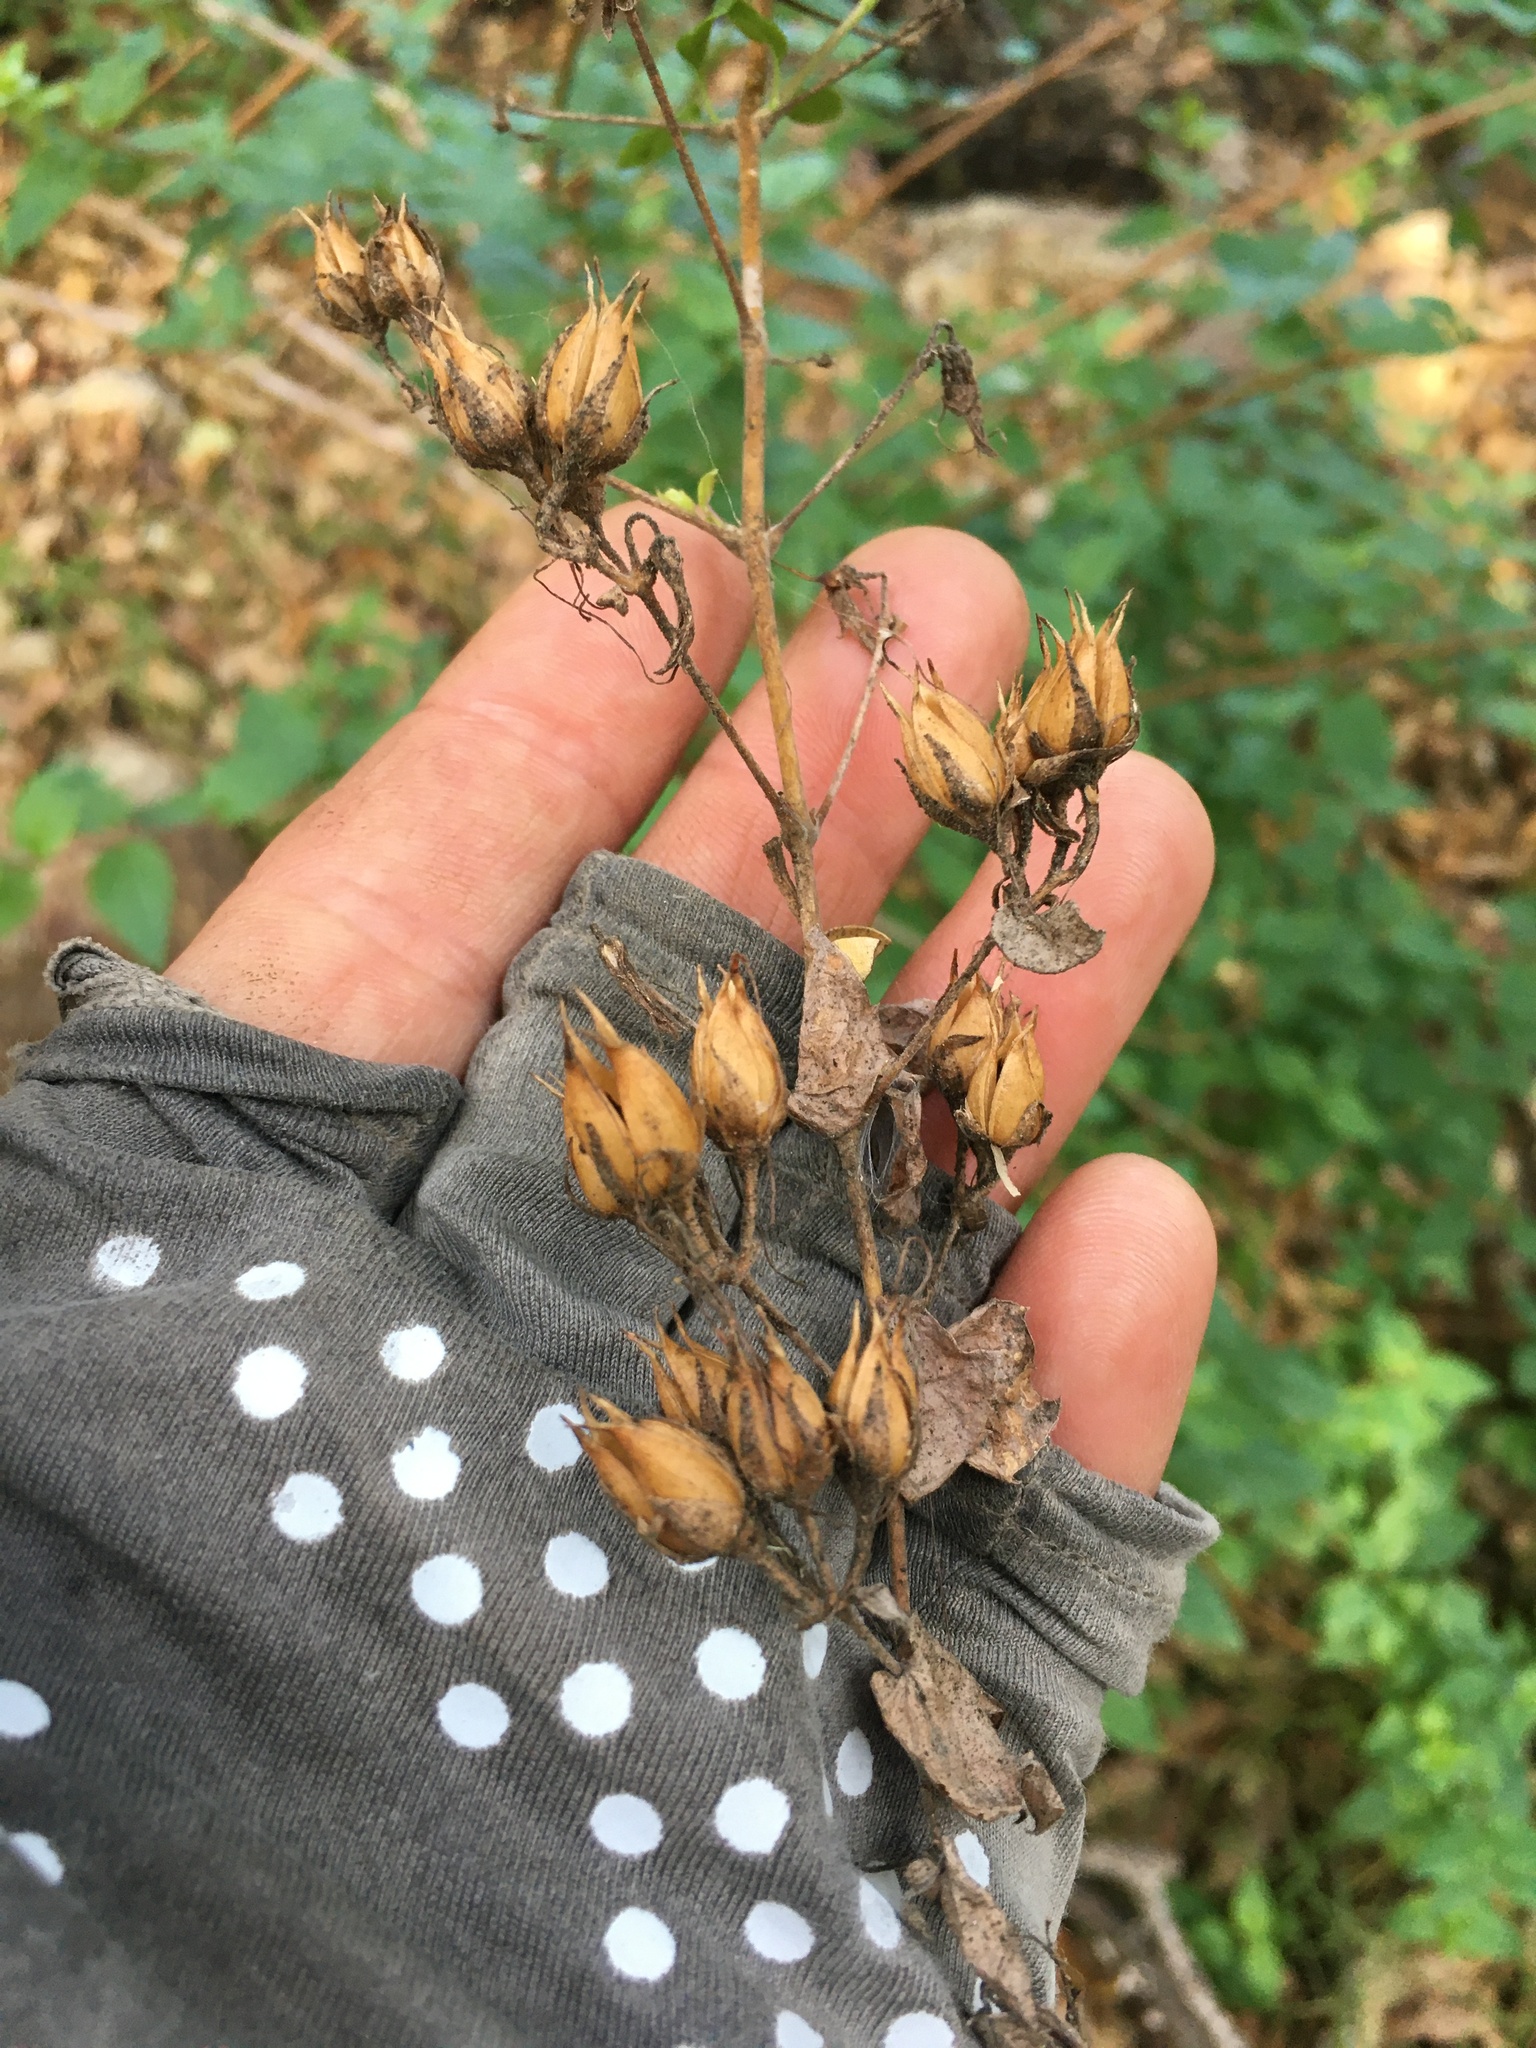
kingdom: Plantae
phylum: Tracheophyta
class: Magnoliopsida
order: Lamiales
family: Plantaginaceae
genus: Keckiella
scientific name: Keckiella cordifolia
